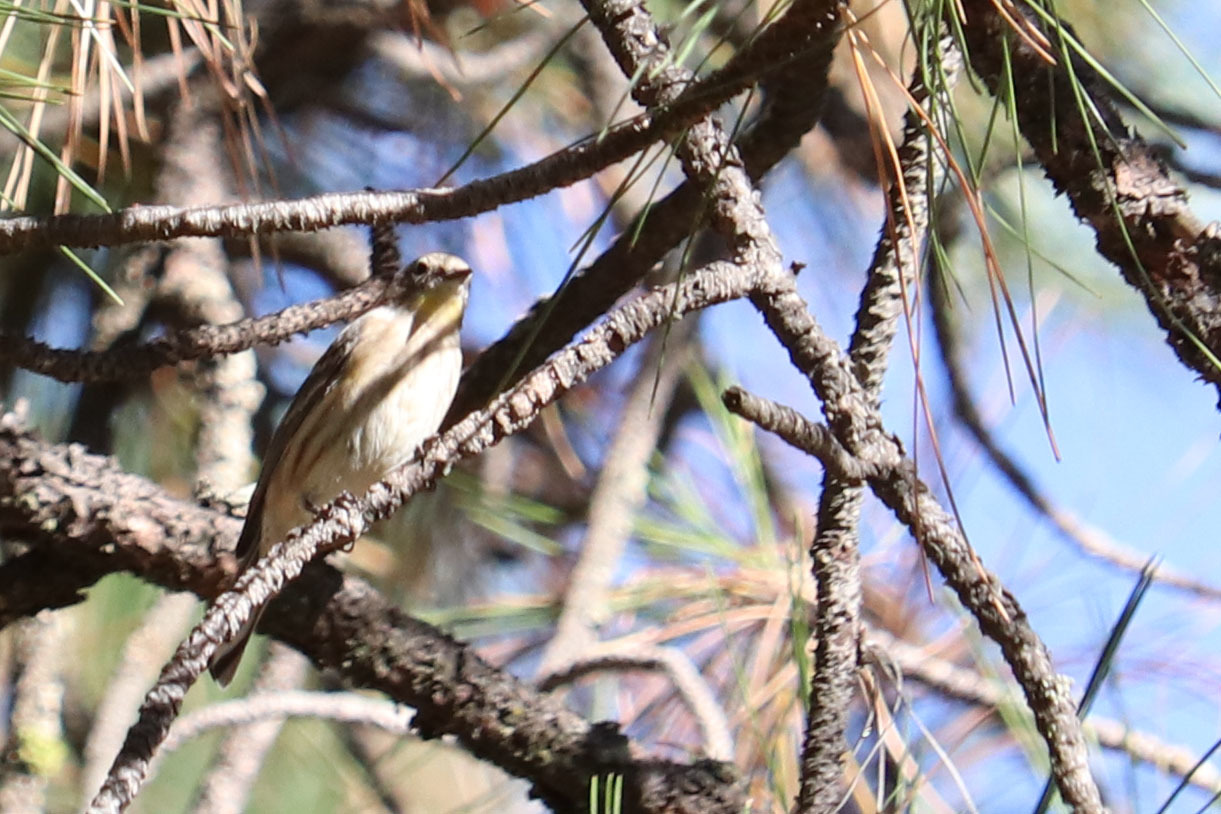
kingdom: Animalia
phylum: Chordata
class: Aves
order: Passeriformes
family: Parulidae
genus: Setophaga
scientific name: Setophaga coronata
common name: Myrtle warbler
